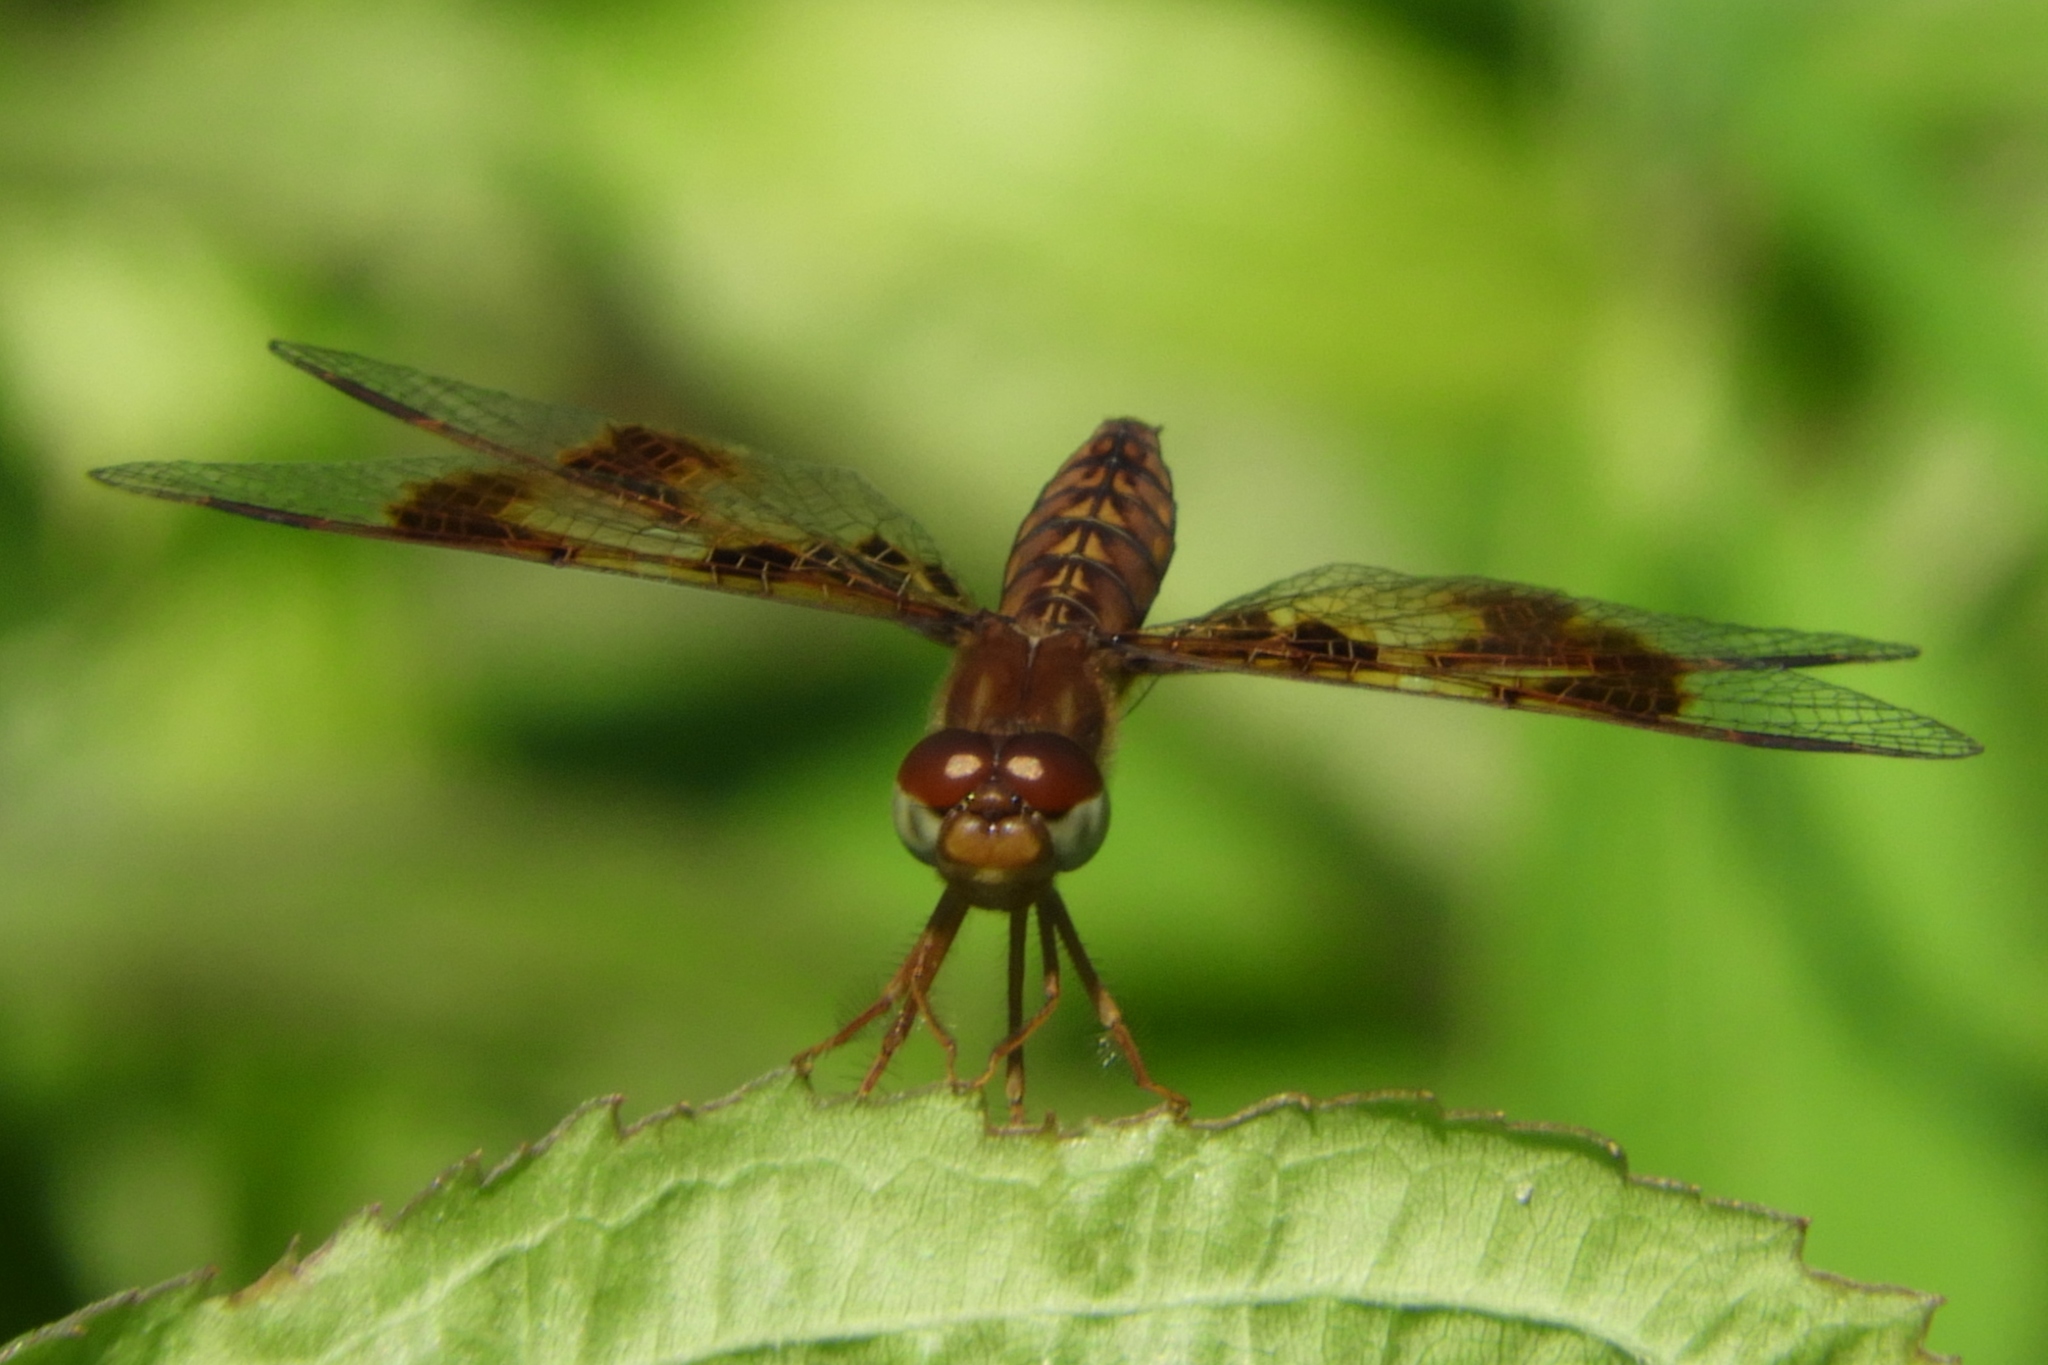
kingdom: Animalia
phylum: Arthropoda
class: Insecta
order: Odonata
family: Libellulidae
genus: Perithemis
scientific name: Perithemis tenera
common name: Eastern amberwing
